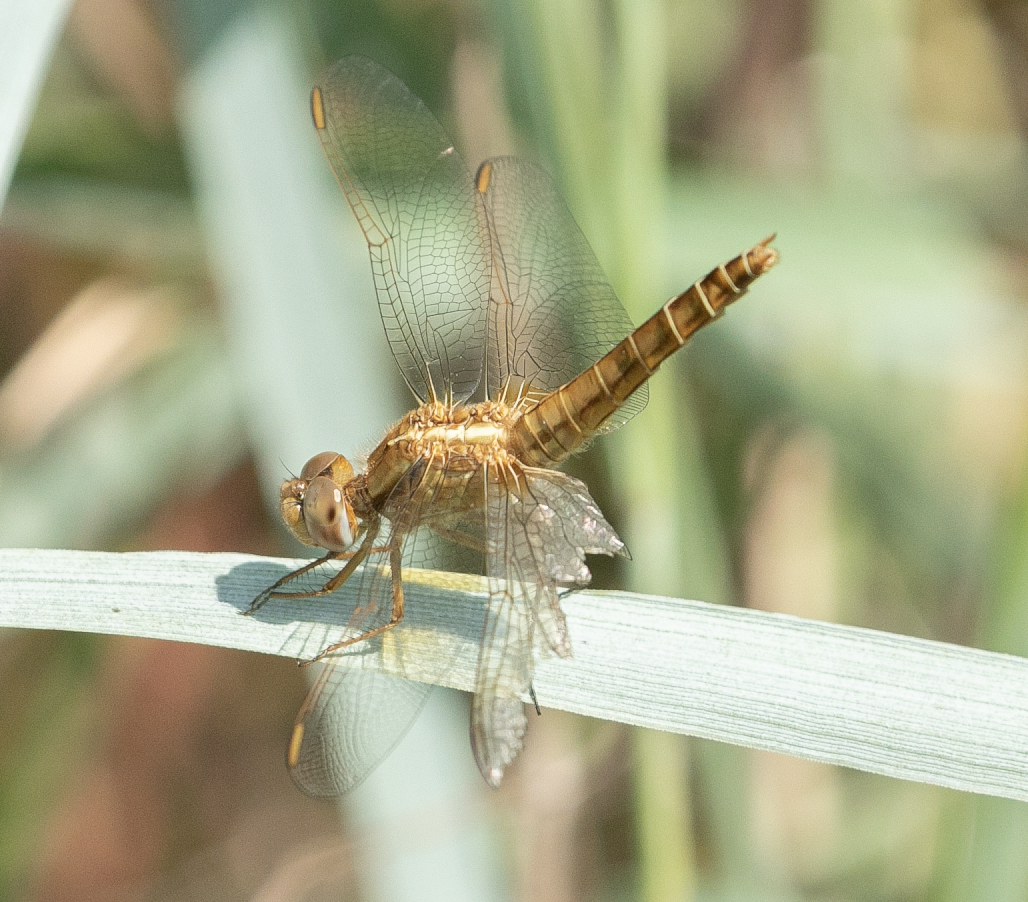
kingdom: Animalia
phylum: Arthropoda
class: Insecta
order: Odonata
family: Libellulidae
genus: Crocothemis
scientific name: Crocothemis erythraea
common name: Scarlet dragonfly
